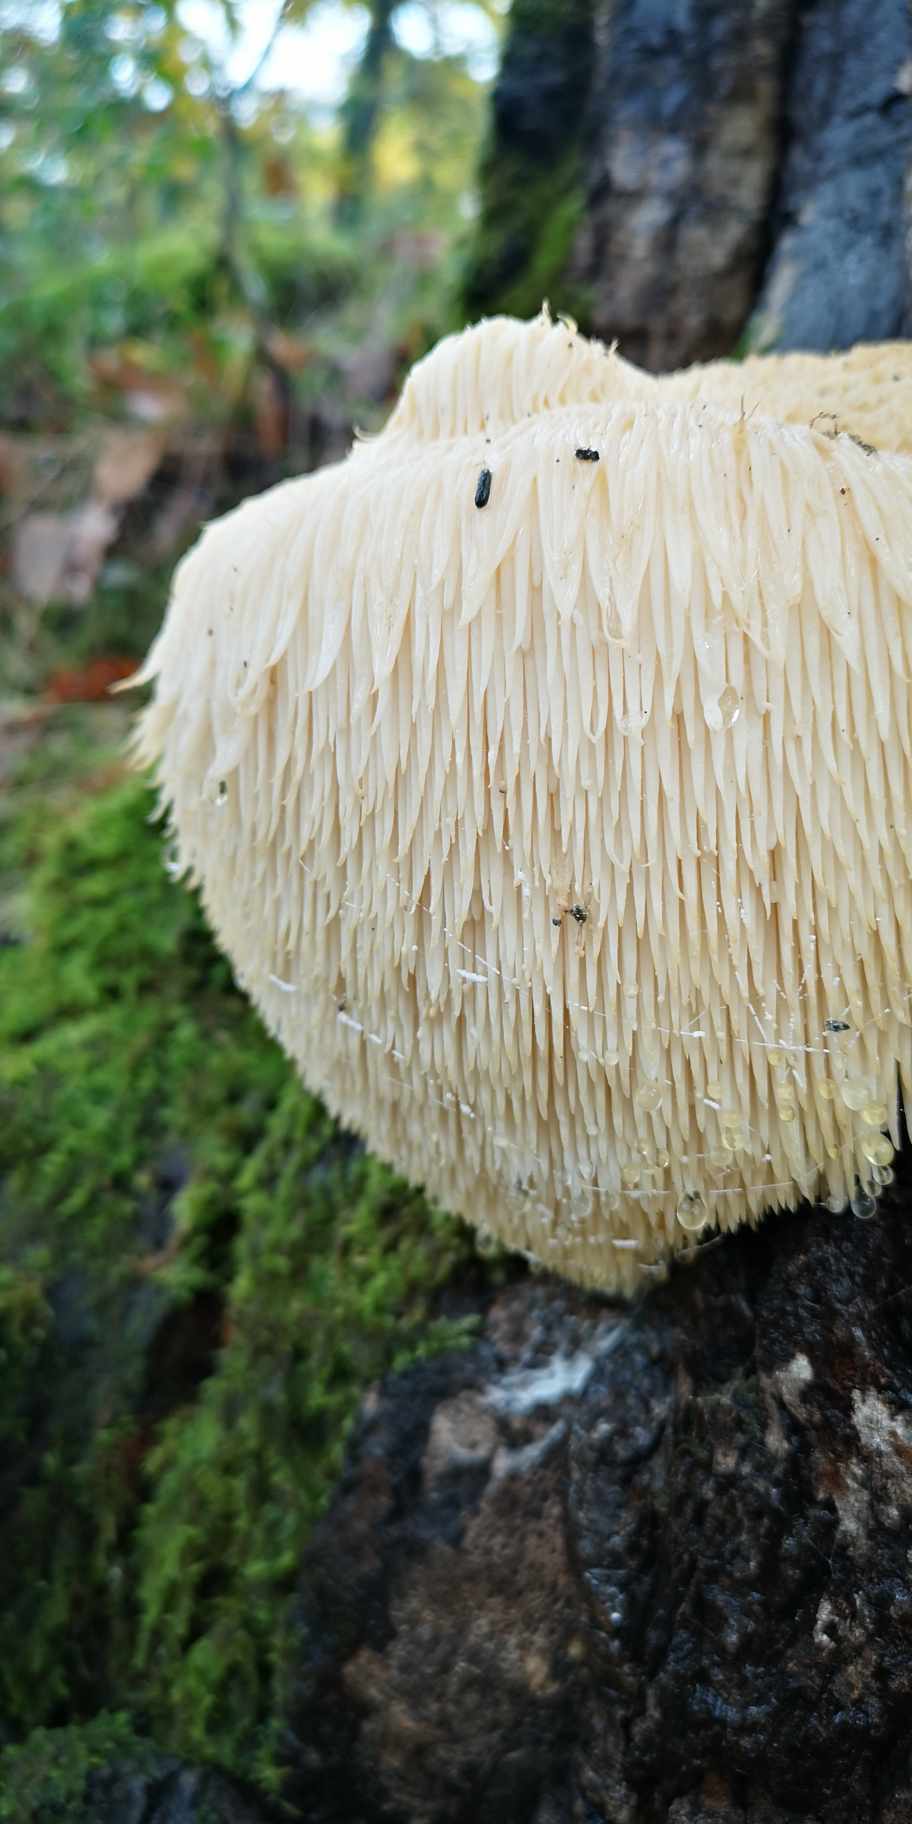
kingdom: Fungi
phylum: Basidiomycota
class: Agaricomycetes
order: Russulales
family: Hericiaceae
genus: Hericium
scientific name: Hericium erinaceus
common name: Bearded tooth
